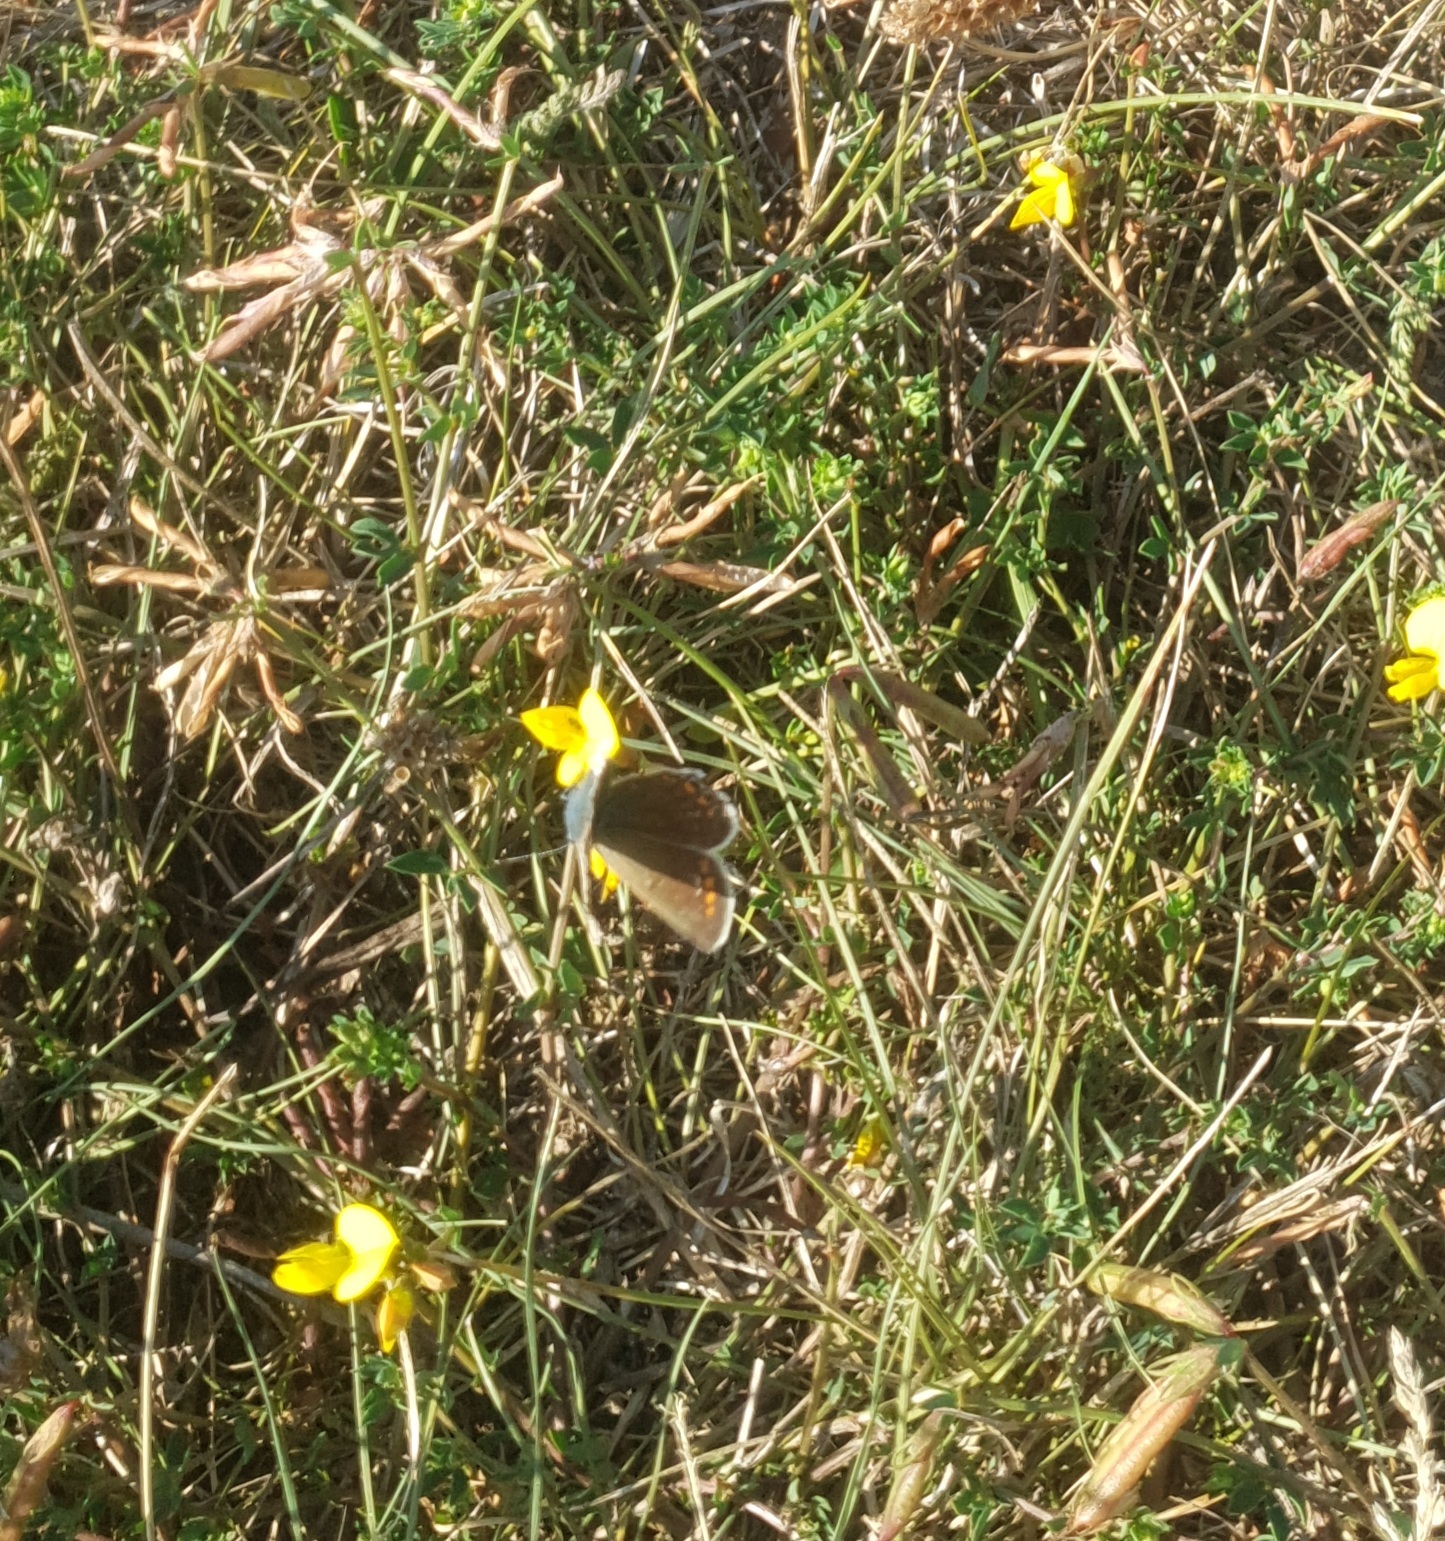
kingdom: Animalia
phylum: Arthropoda
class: Insecta
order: Lepidoptera
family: Lycaenidae
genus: Polyommatus
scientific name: Polyommatus icarus
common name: Common blue
